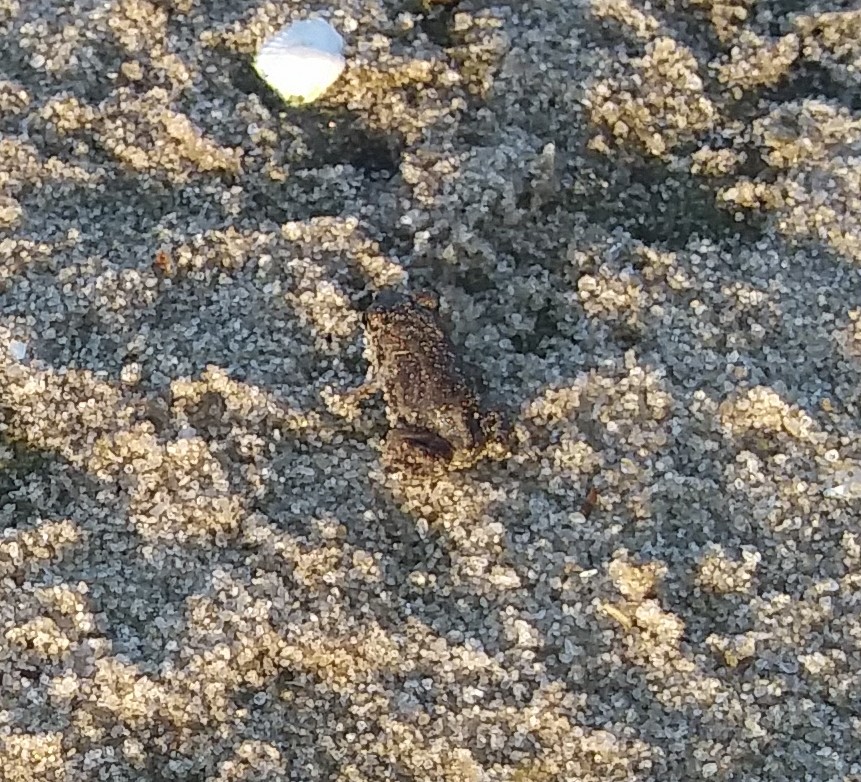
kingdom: Animalia
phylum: Chordata
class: Amphibia
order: Anura
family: Scaphiopodidae
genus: Scaphiopus
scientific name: Scaphiopus holbrookii
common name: Eastern spadefoot toad
